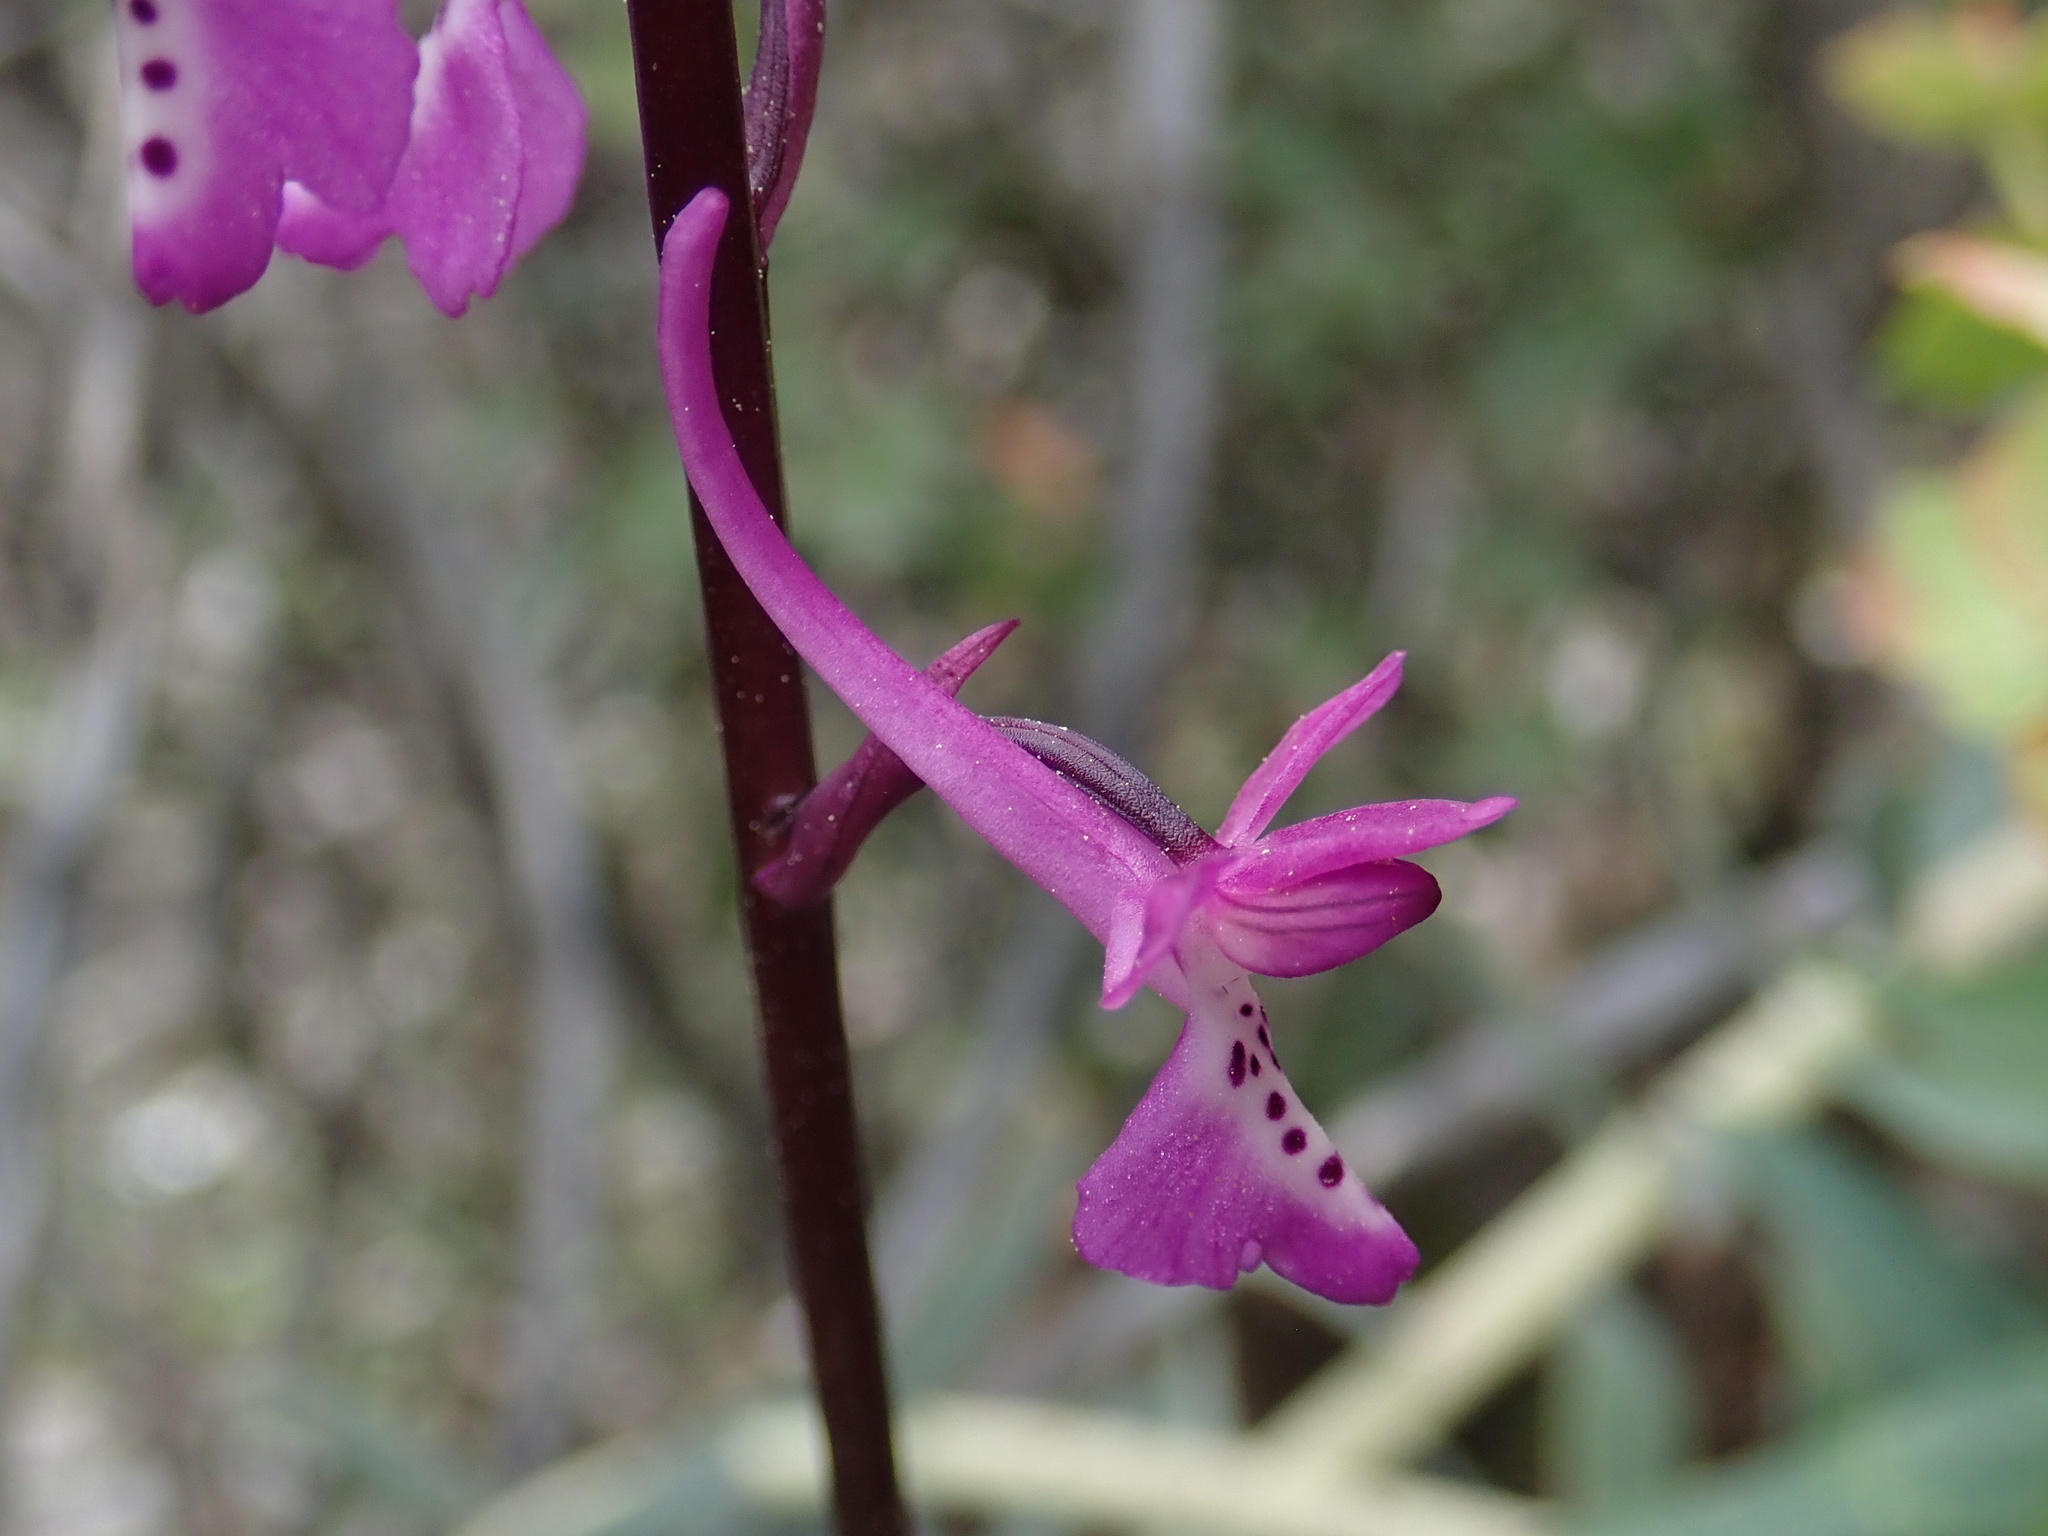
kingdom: Plantae
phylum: Tracheophyta
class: Liliopsida
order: Asparagales
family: Orchidaceae
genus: Orchis
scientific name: Orchis anatolica
